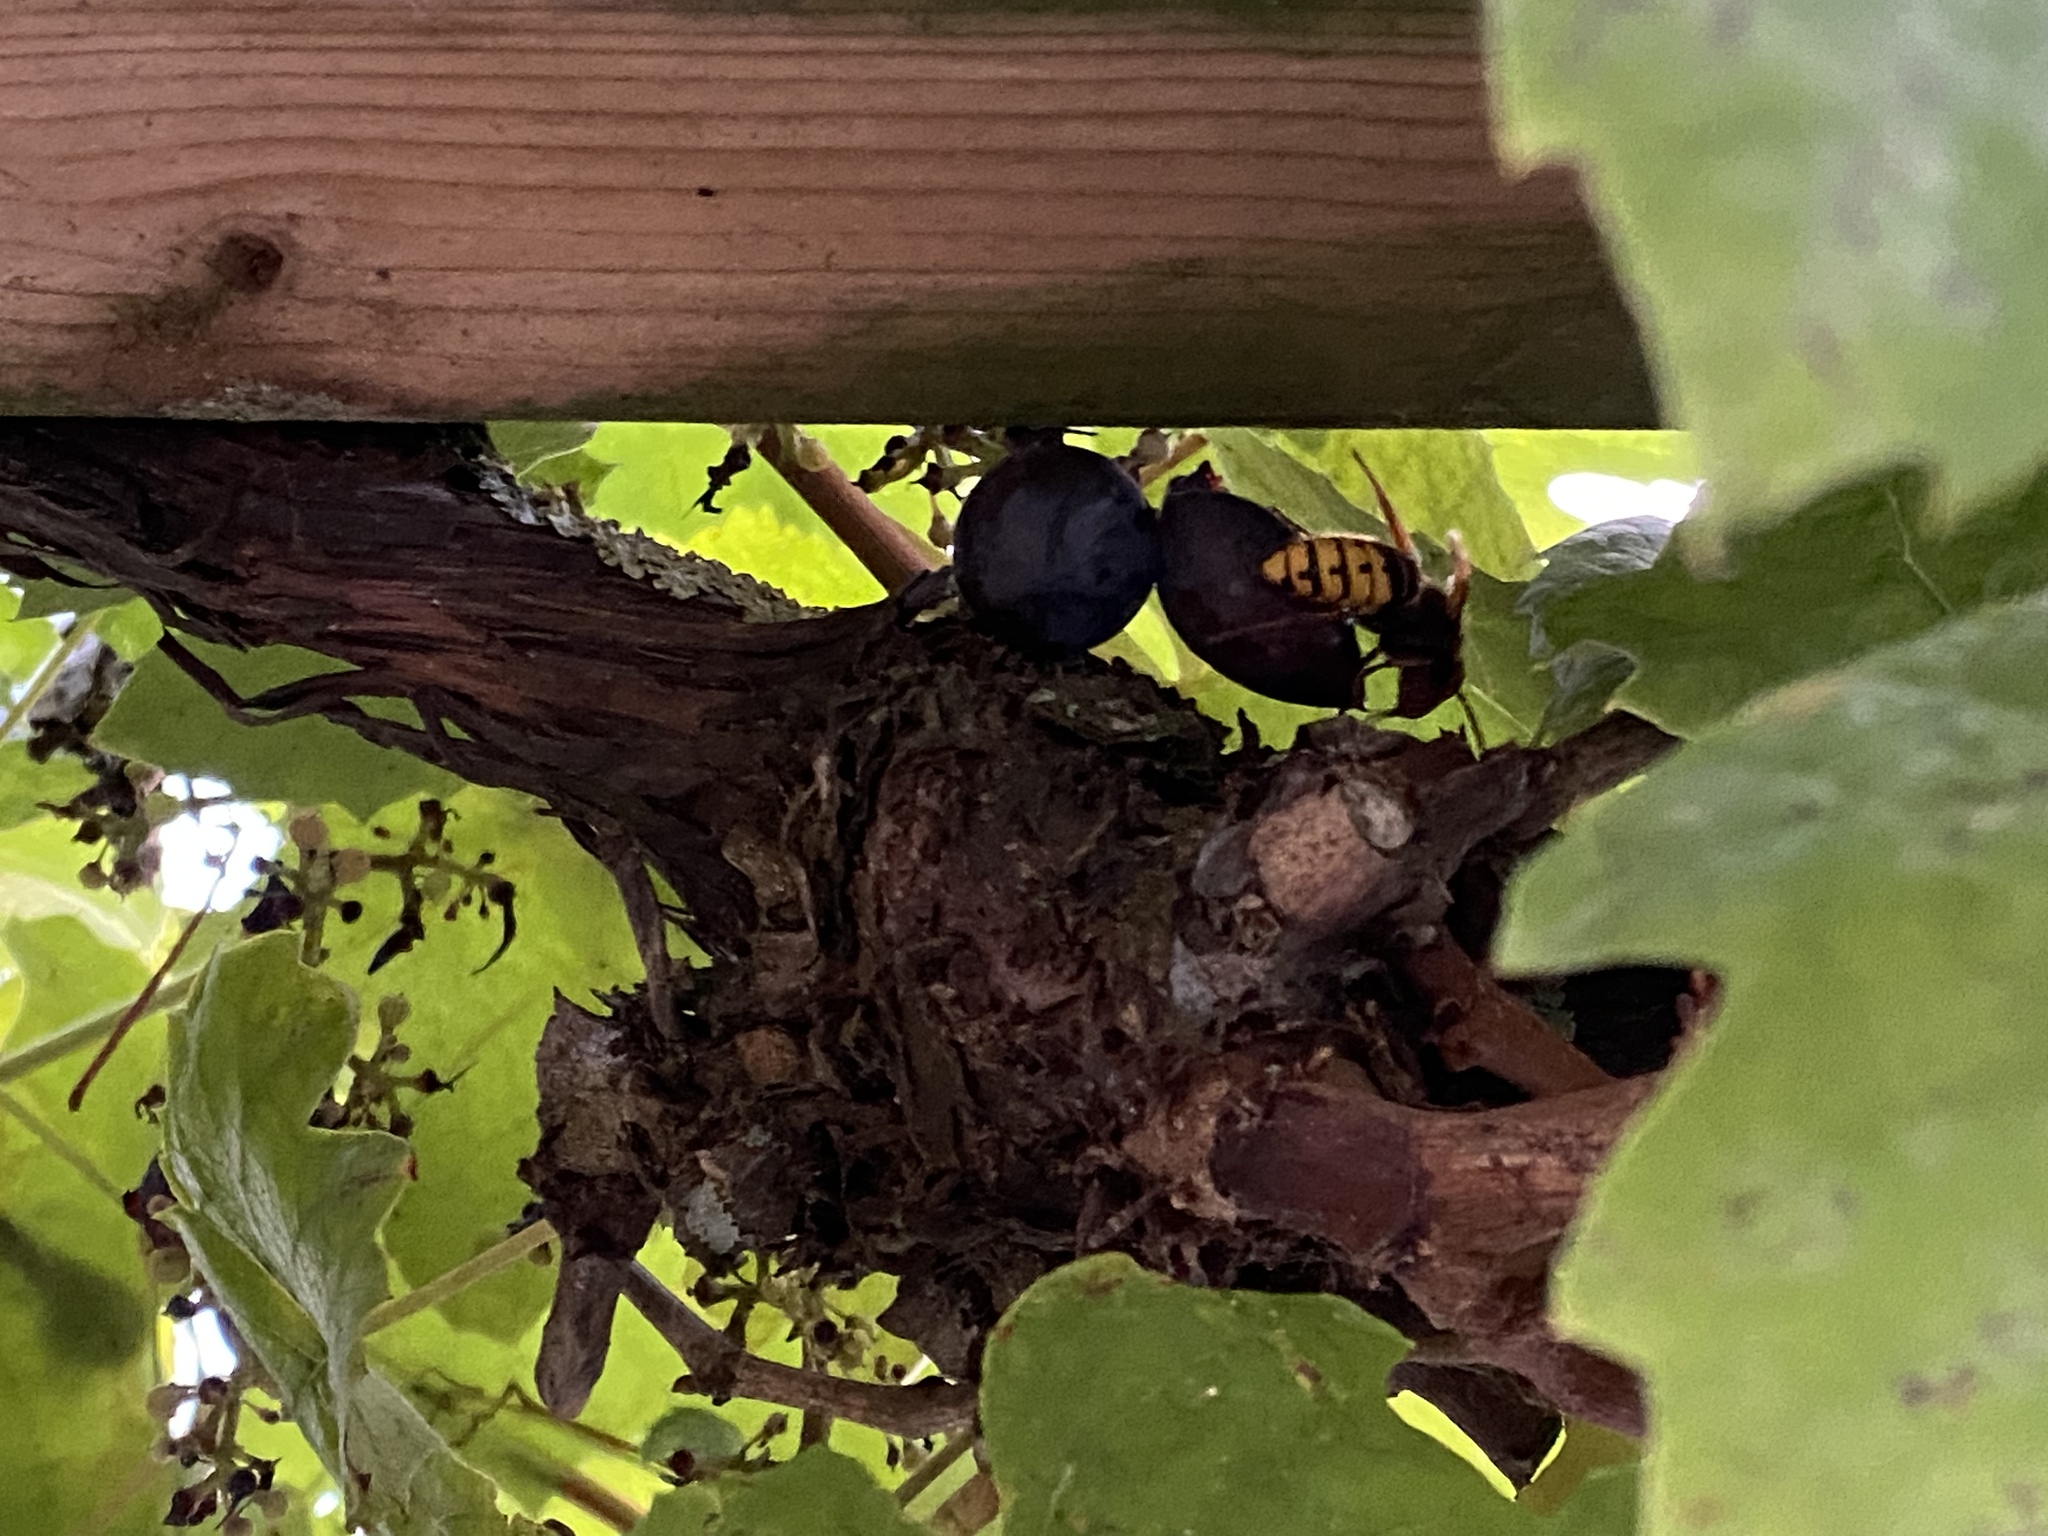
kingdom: Animalia
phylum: Arthropoda
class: Insecta
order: Hymenoptera
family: Vespidae
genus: Vespa
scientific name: Vespa crabro
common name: Hornet
